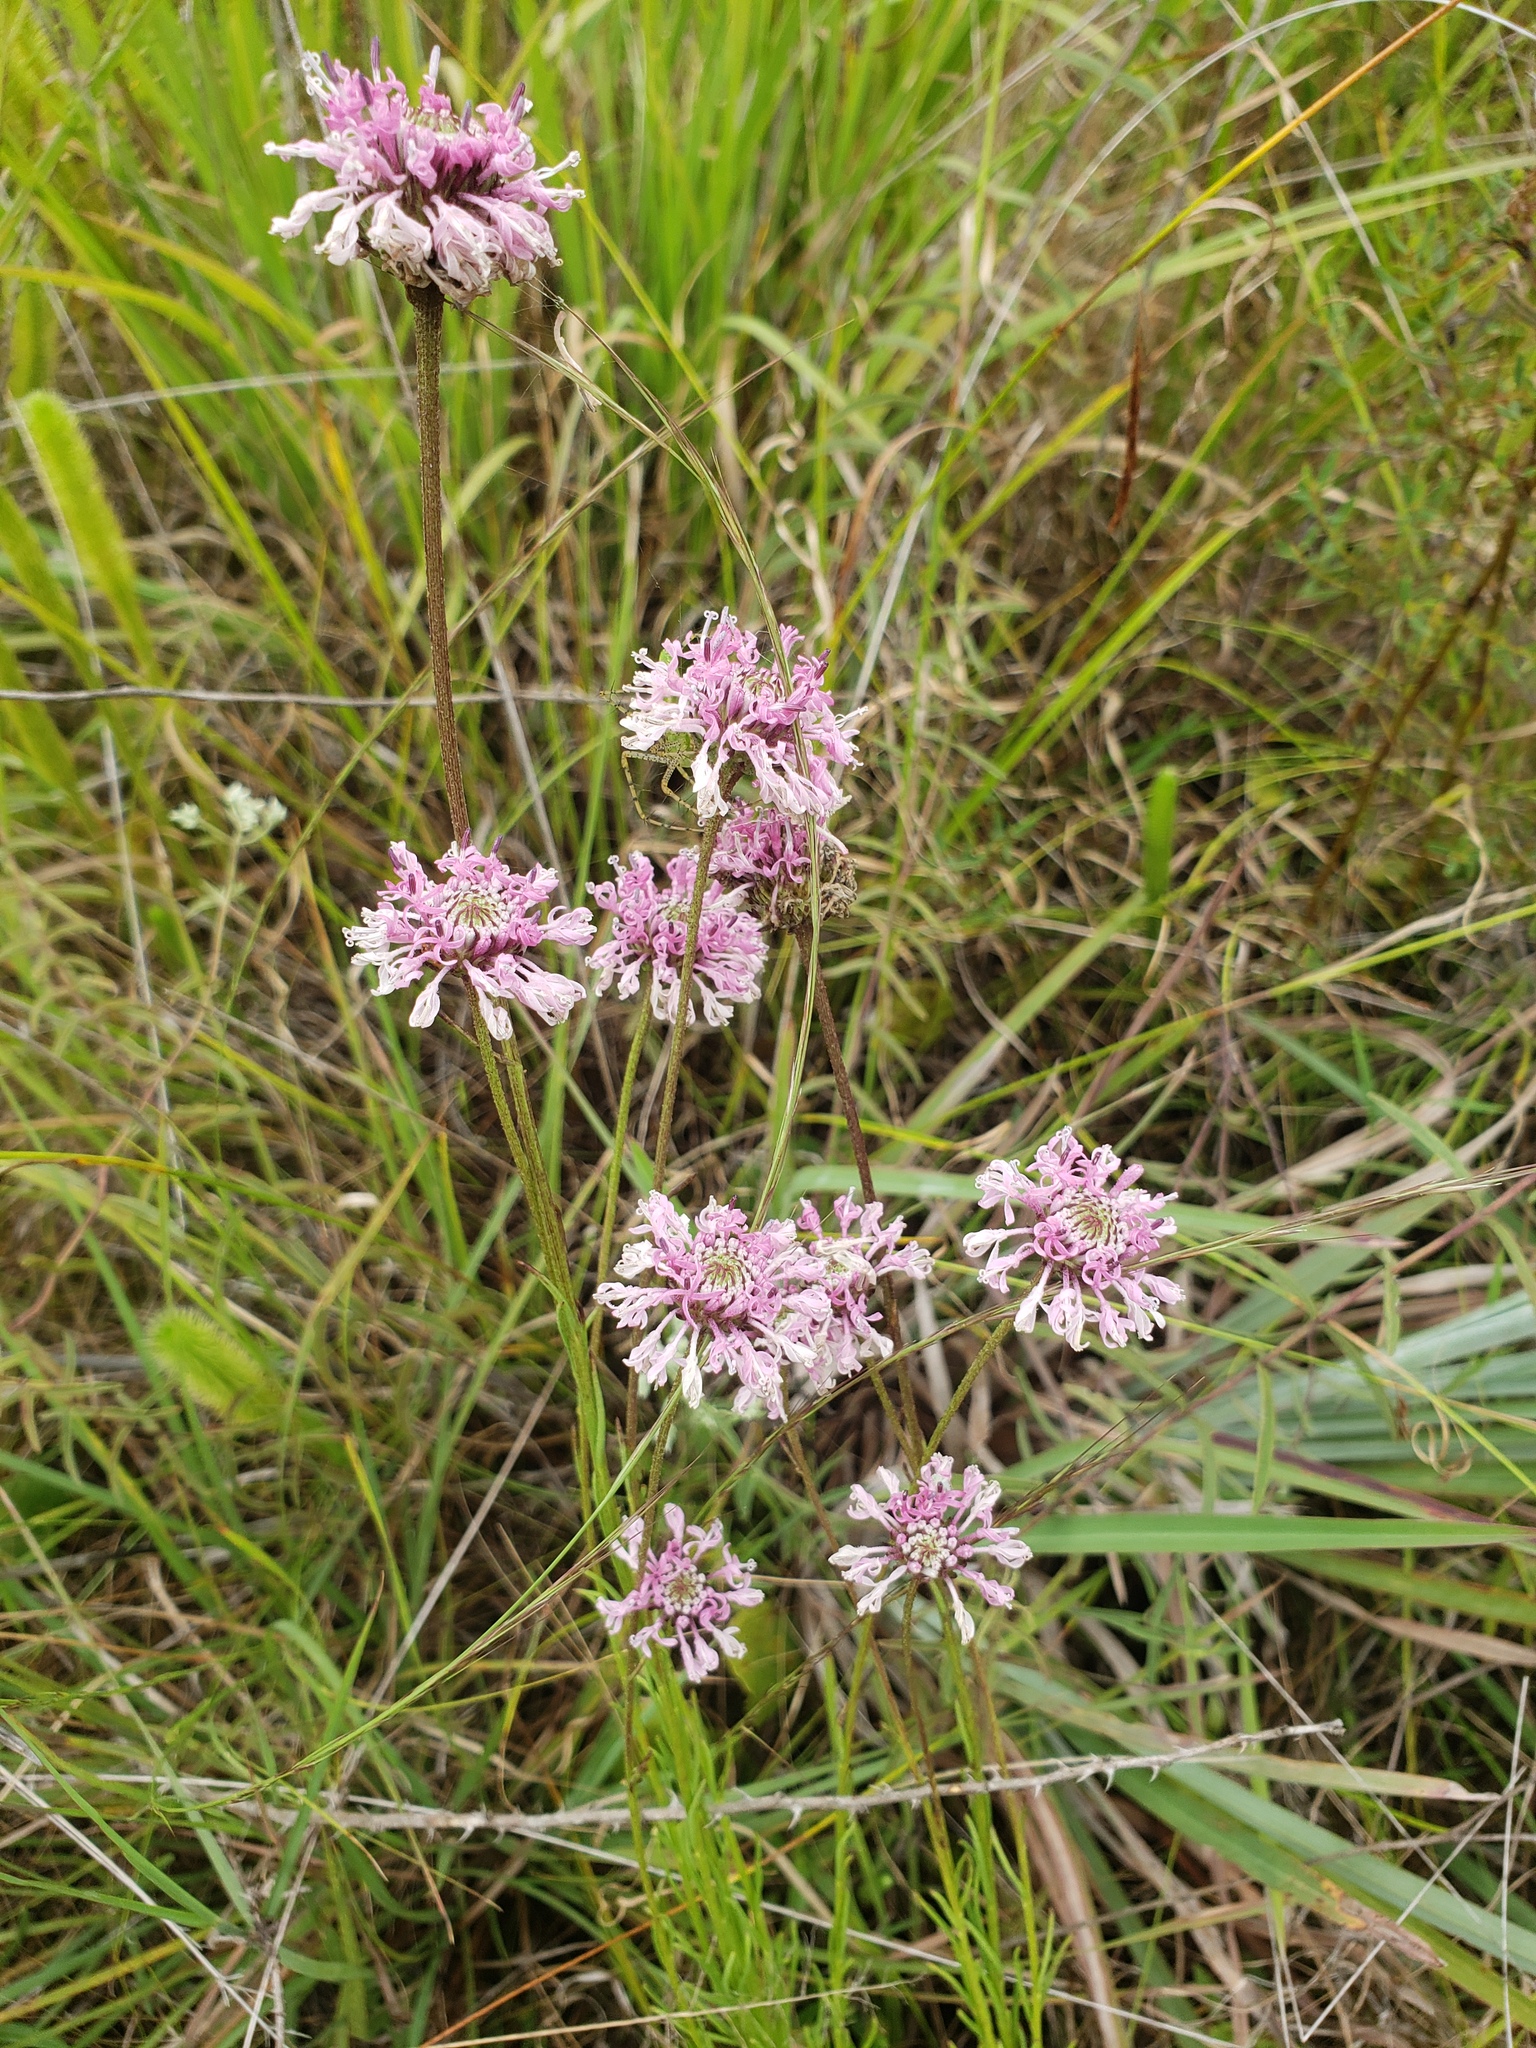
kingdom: Plantae
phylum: Tracheophyta
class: Magnoliopsida
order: Asterales
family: Asteraceae
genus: Marshallia
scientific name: Marshallia graminifolia
